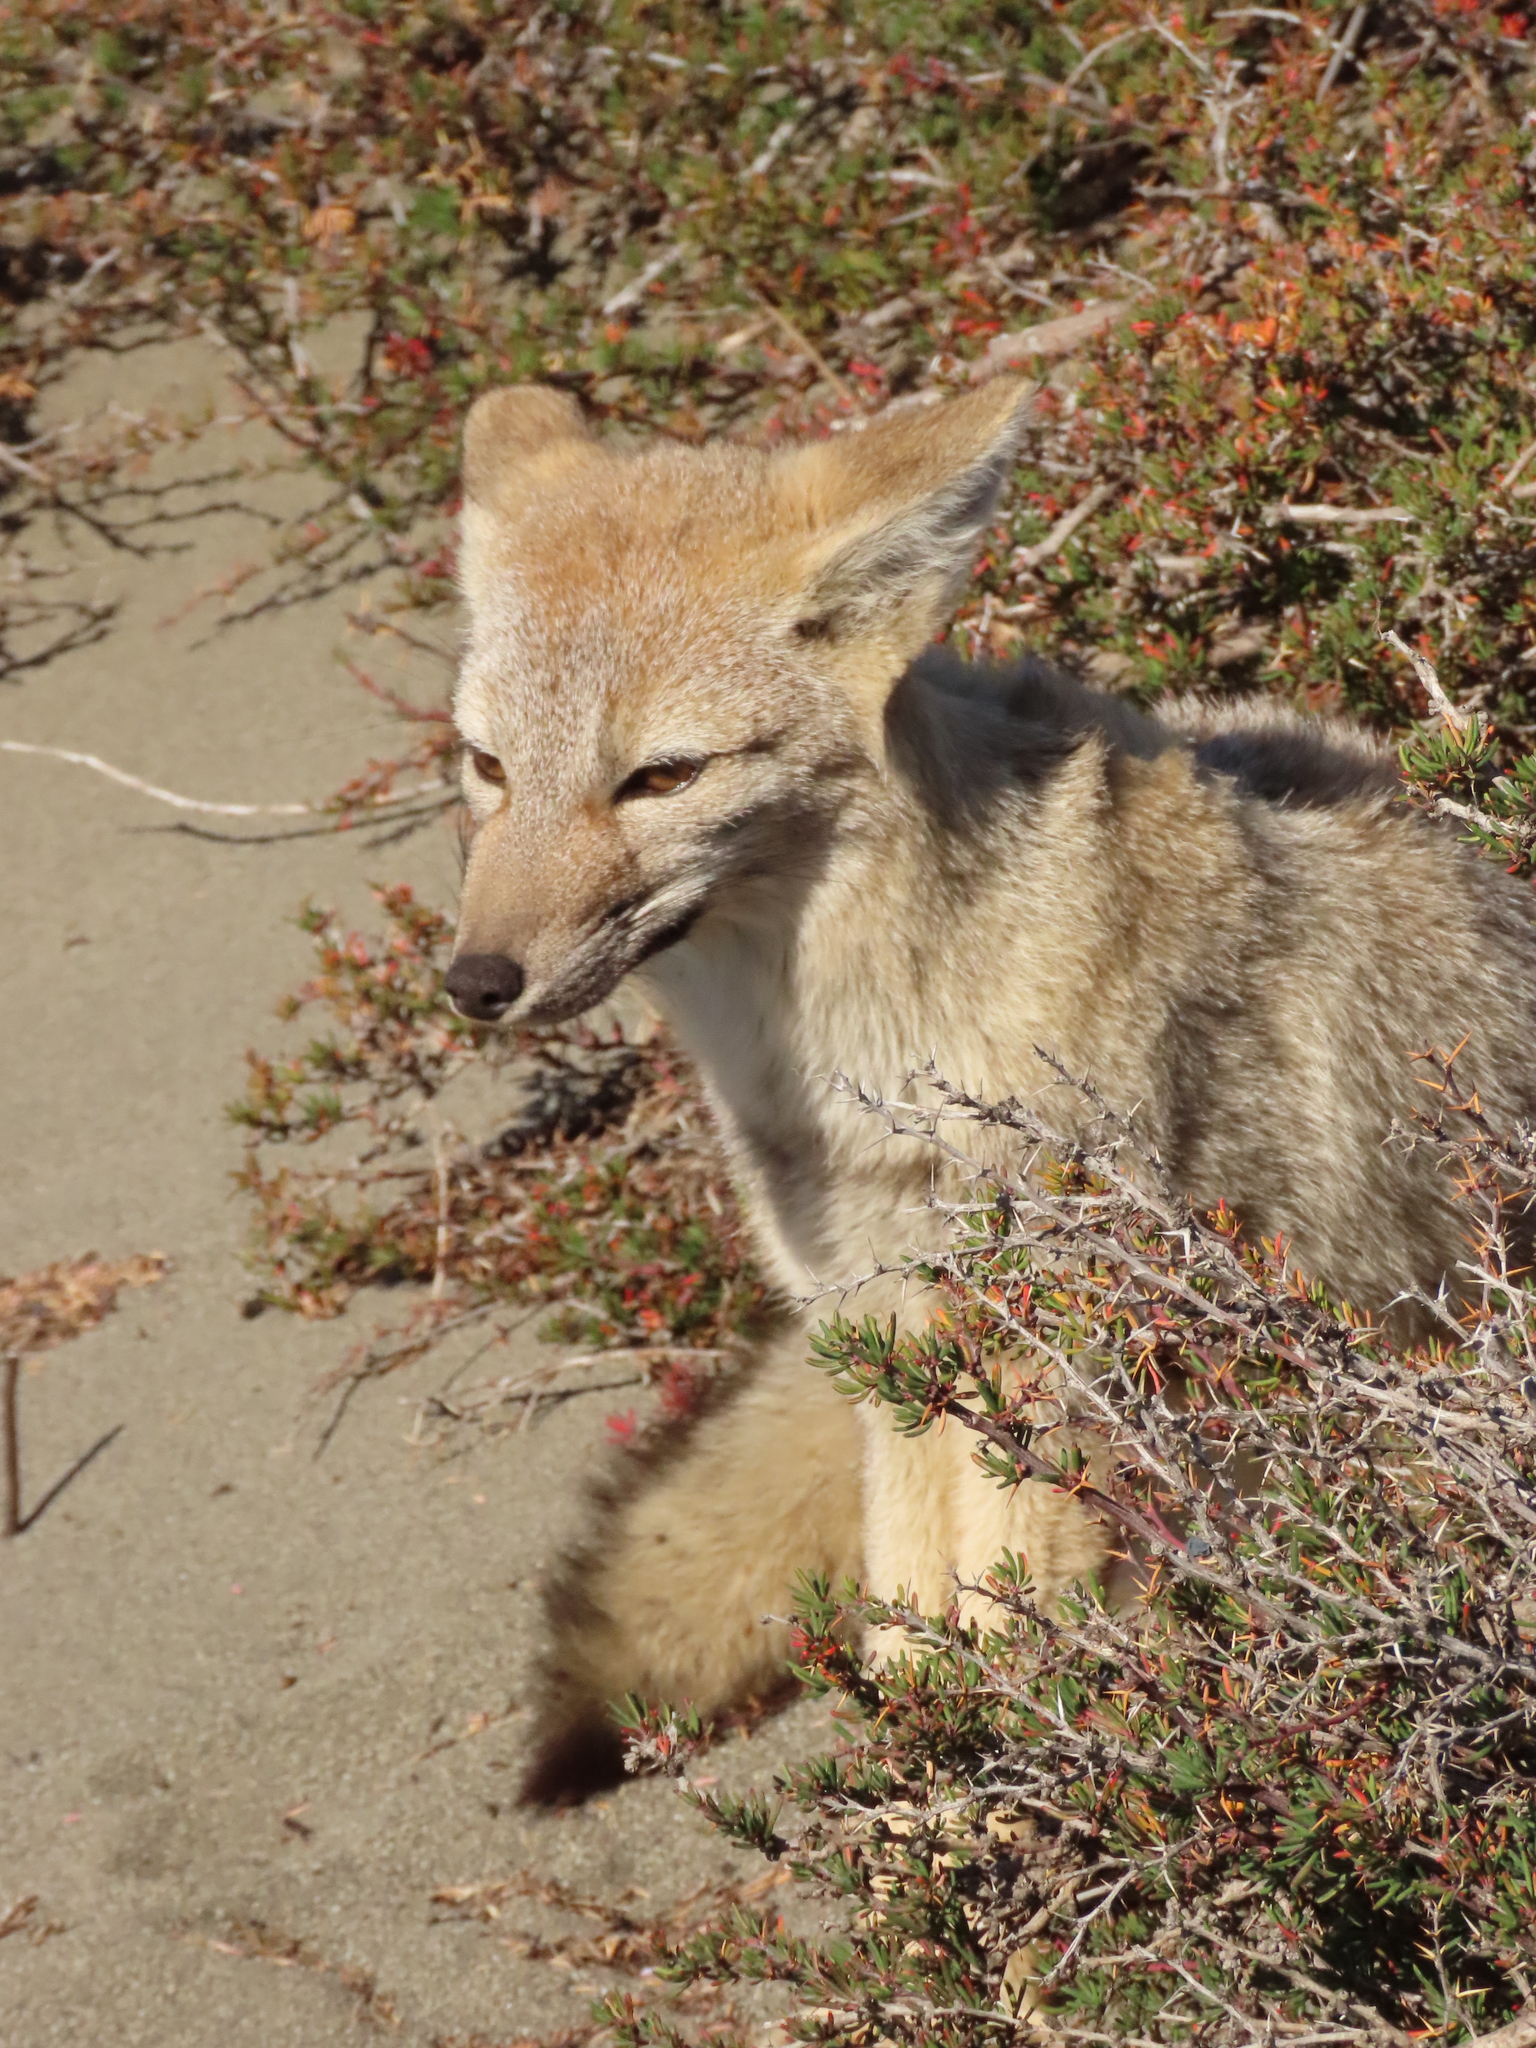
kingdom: Animalia
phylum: Chordata
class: Mammalia
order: Carnivora
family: Canidae
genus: Lycalopex
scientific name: Lycalopex gymnocercus
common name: Pampas fox
